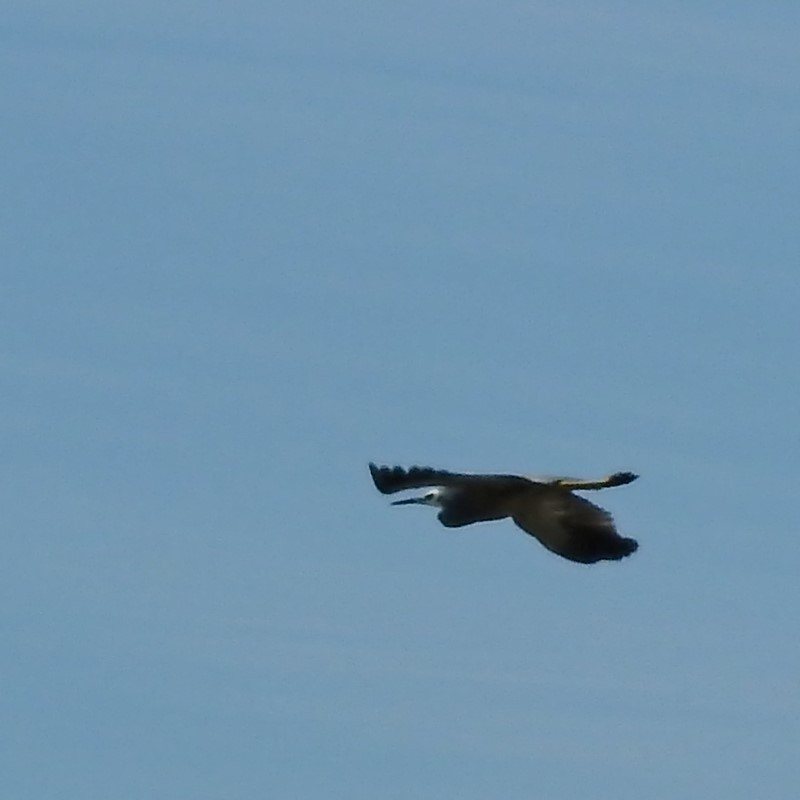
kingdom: Animalia
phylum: Chordata
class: Aves
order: Pelecaniformes
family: Ardeidae
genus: Egretta
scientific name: Egretta novaehollandiae
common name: White-faced heron
